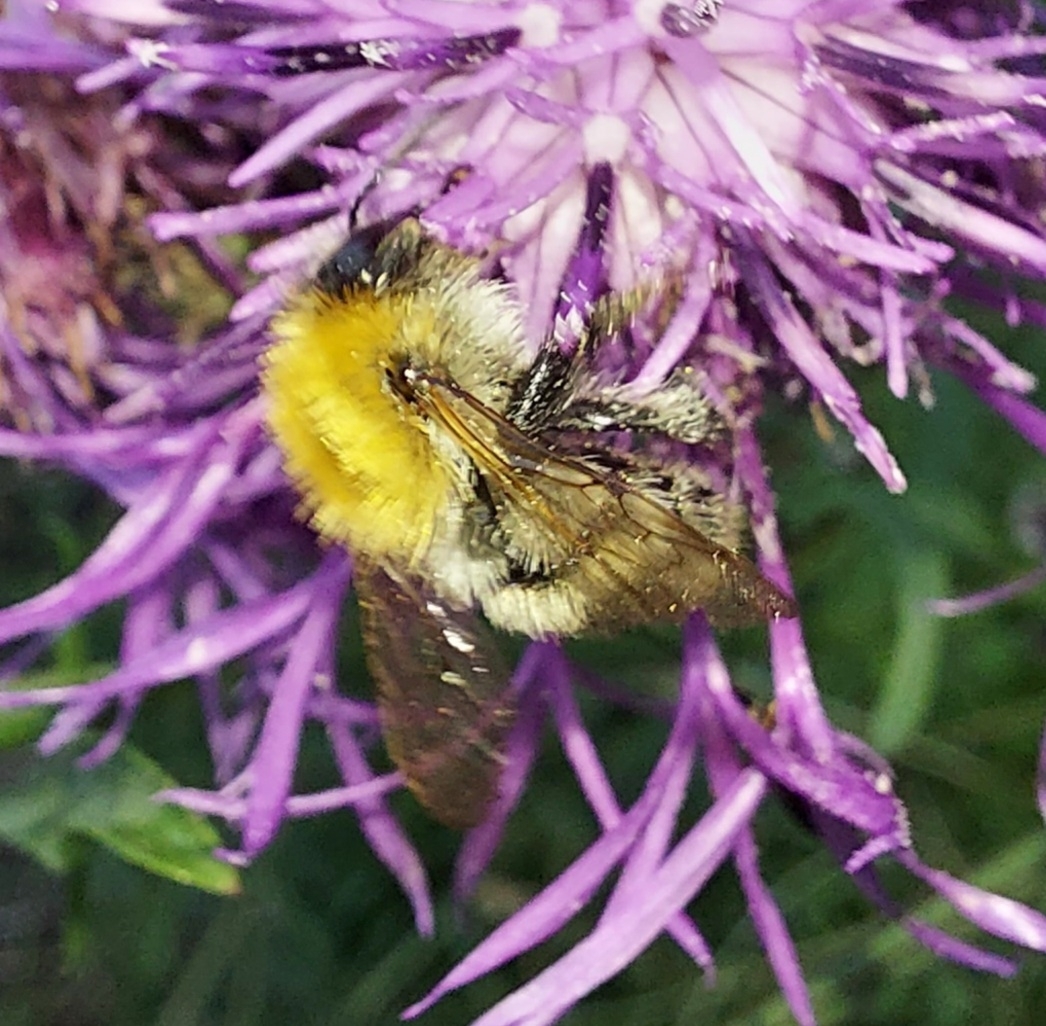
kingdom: Animalia
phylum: Arthropoda
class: Insecta
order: Hymenoptera
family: Apidae
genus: Bombus
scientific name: Bombus pascuorum
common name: Common carder bee
